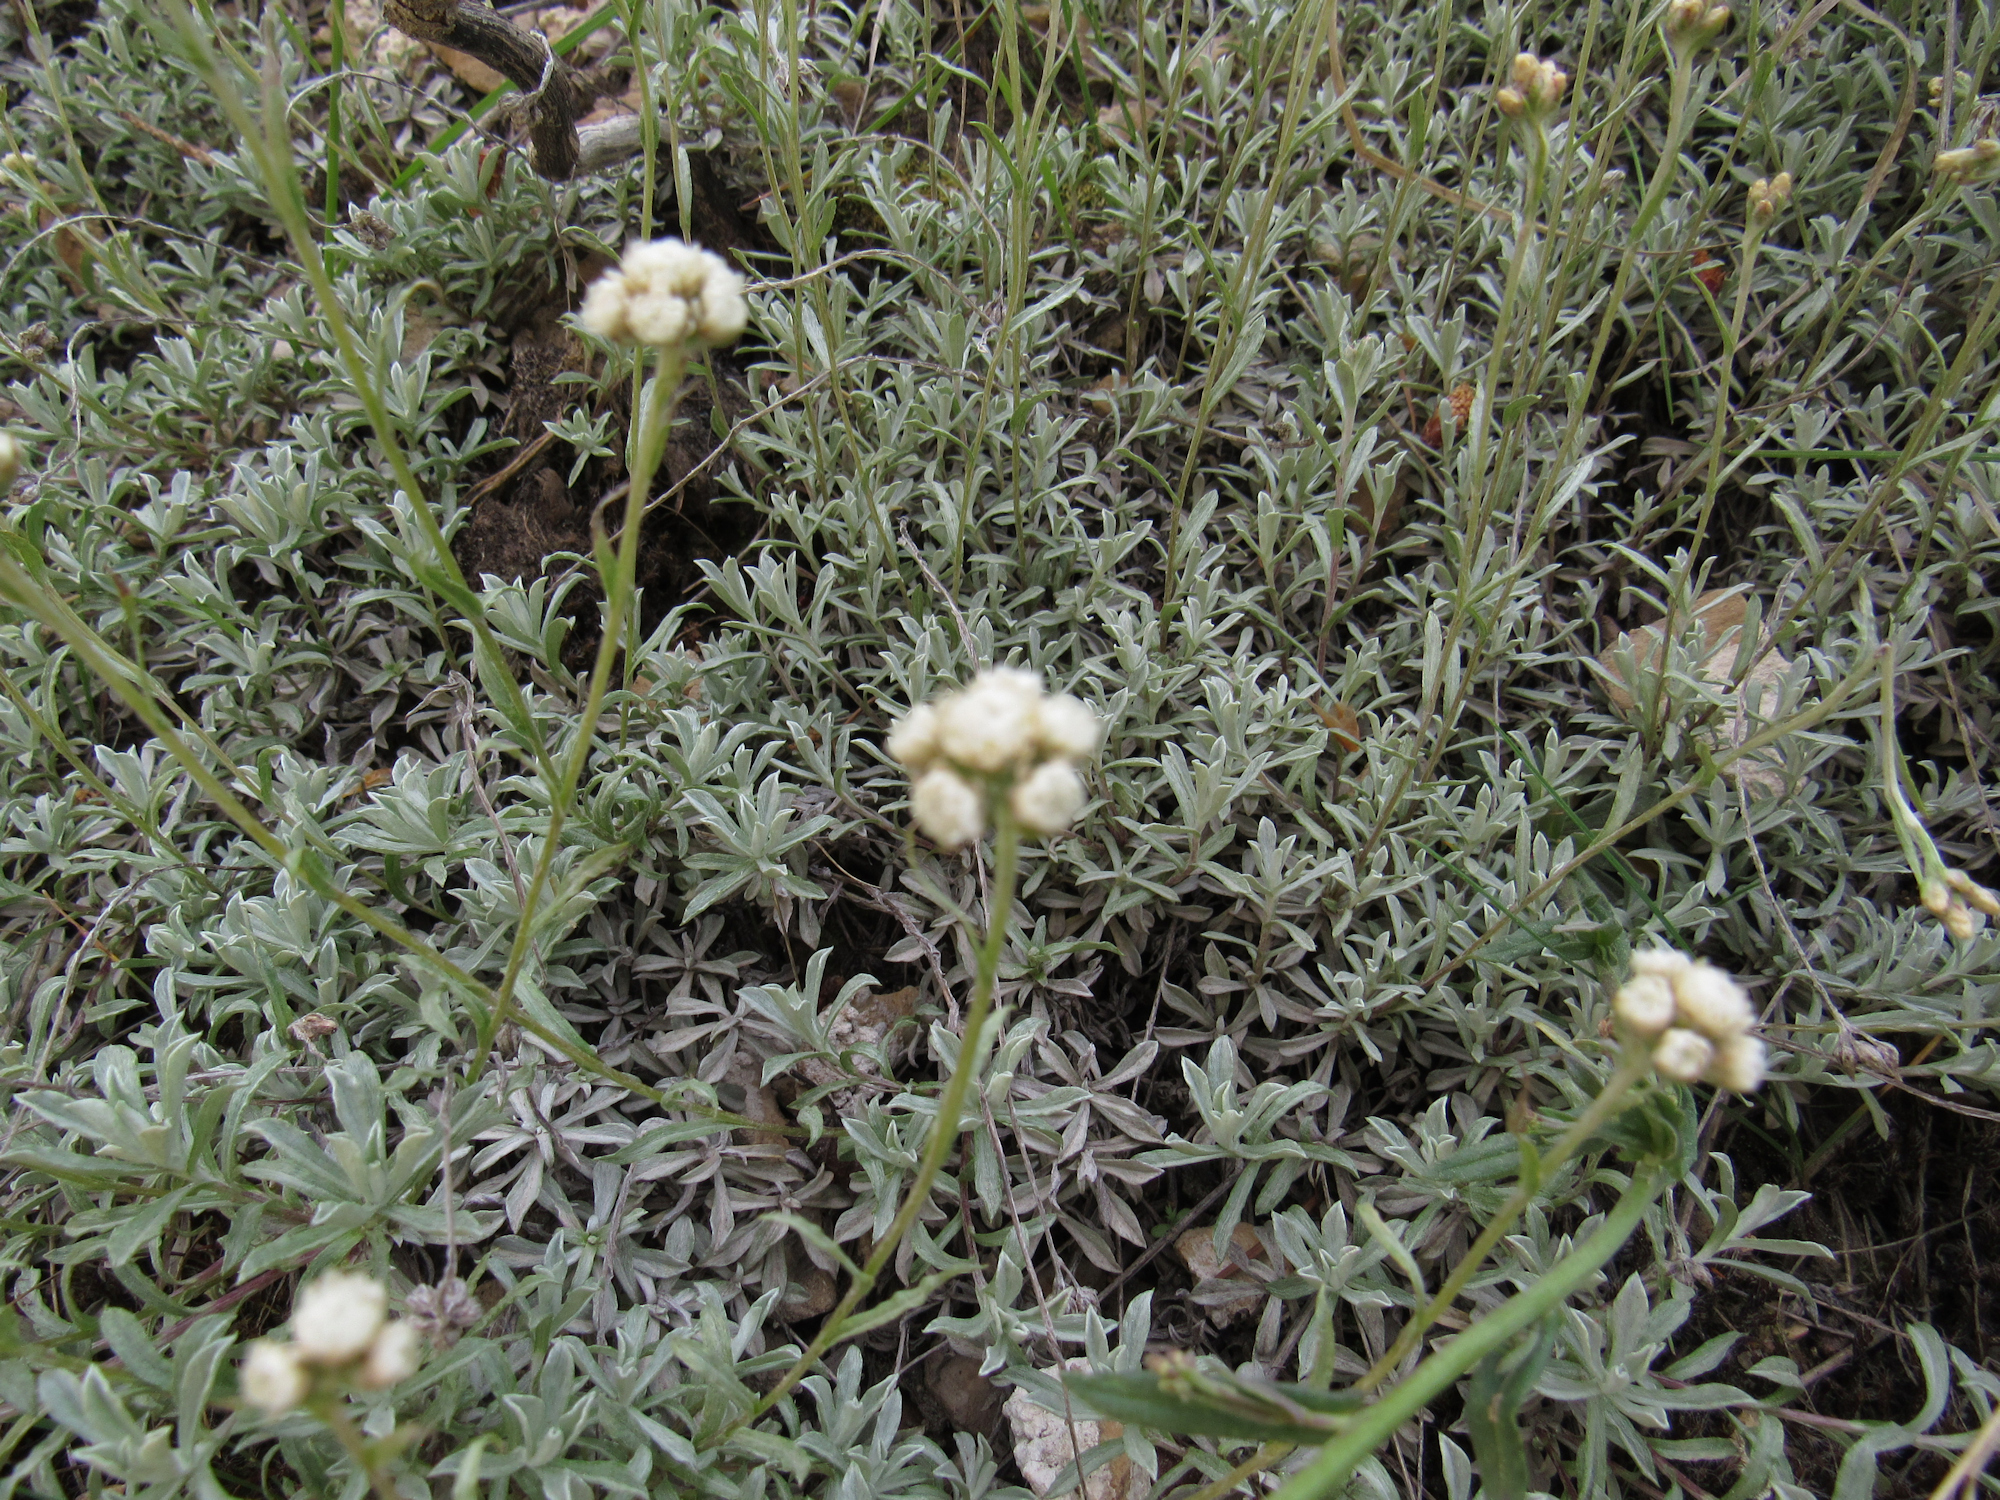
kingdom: Plantae
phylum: Tracheophyta
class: Magnoliopsida
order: Asterales
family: Asteraceae
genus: Antennaria
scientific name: Antennaria umbrinella
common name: Brown pussytoes
